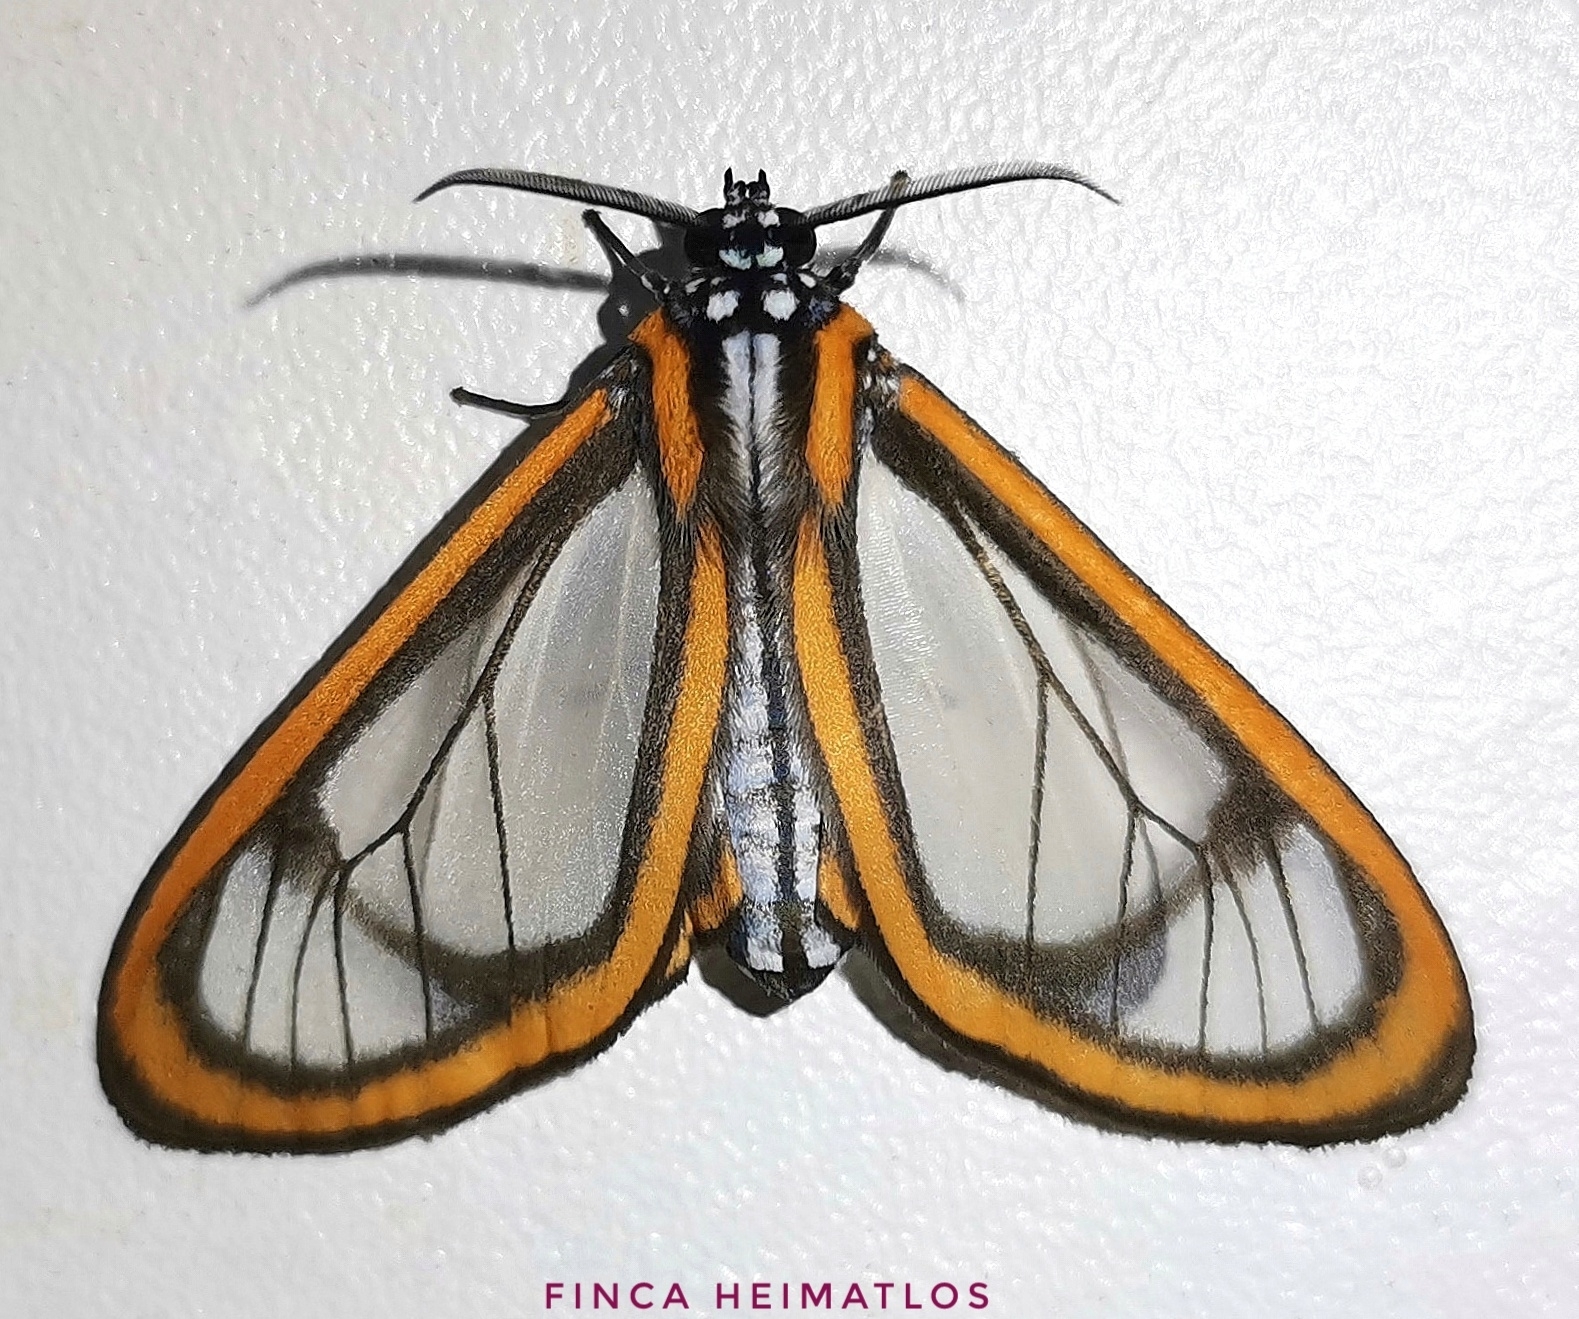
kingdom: Animalia
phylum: Arthropoda
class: Insecta
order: Lepidoptera
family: Erebidae
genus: Hyalurga
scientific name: Hyalurga urioides
